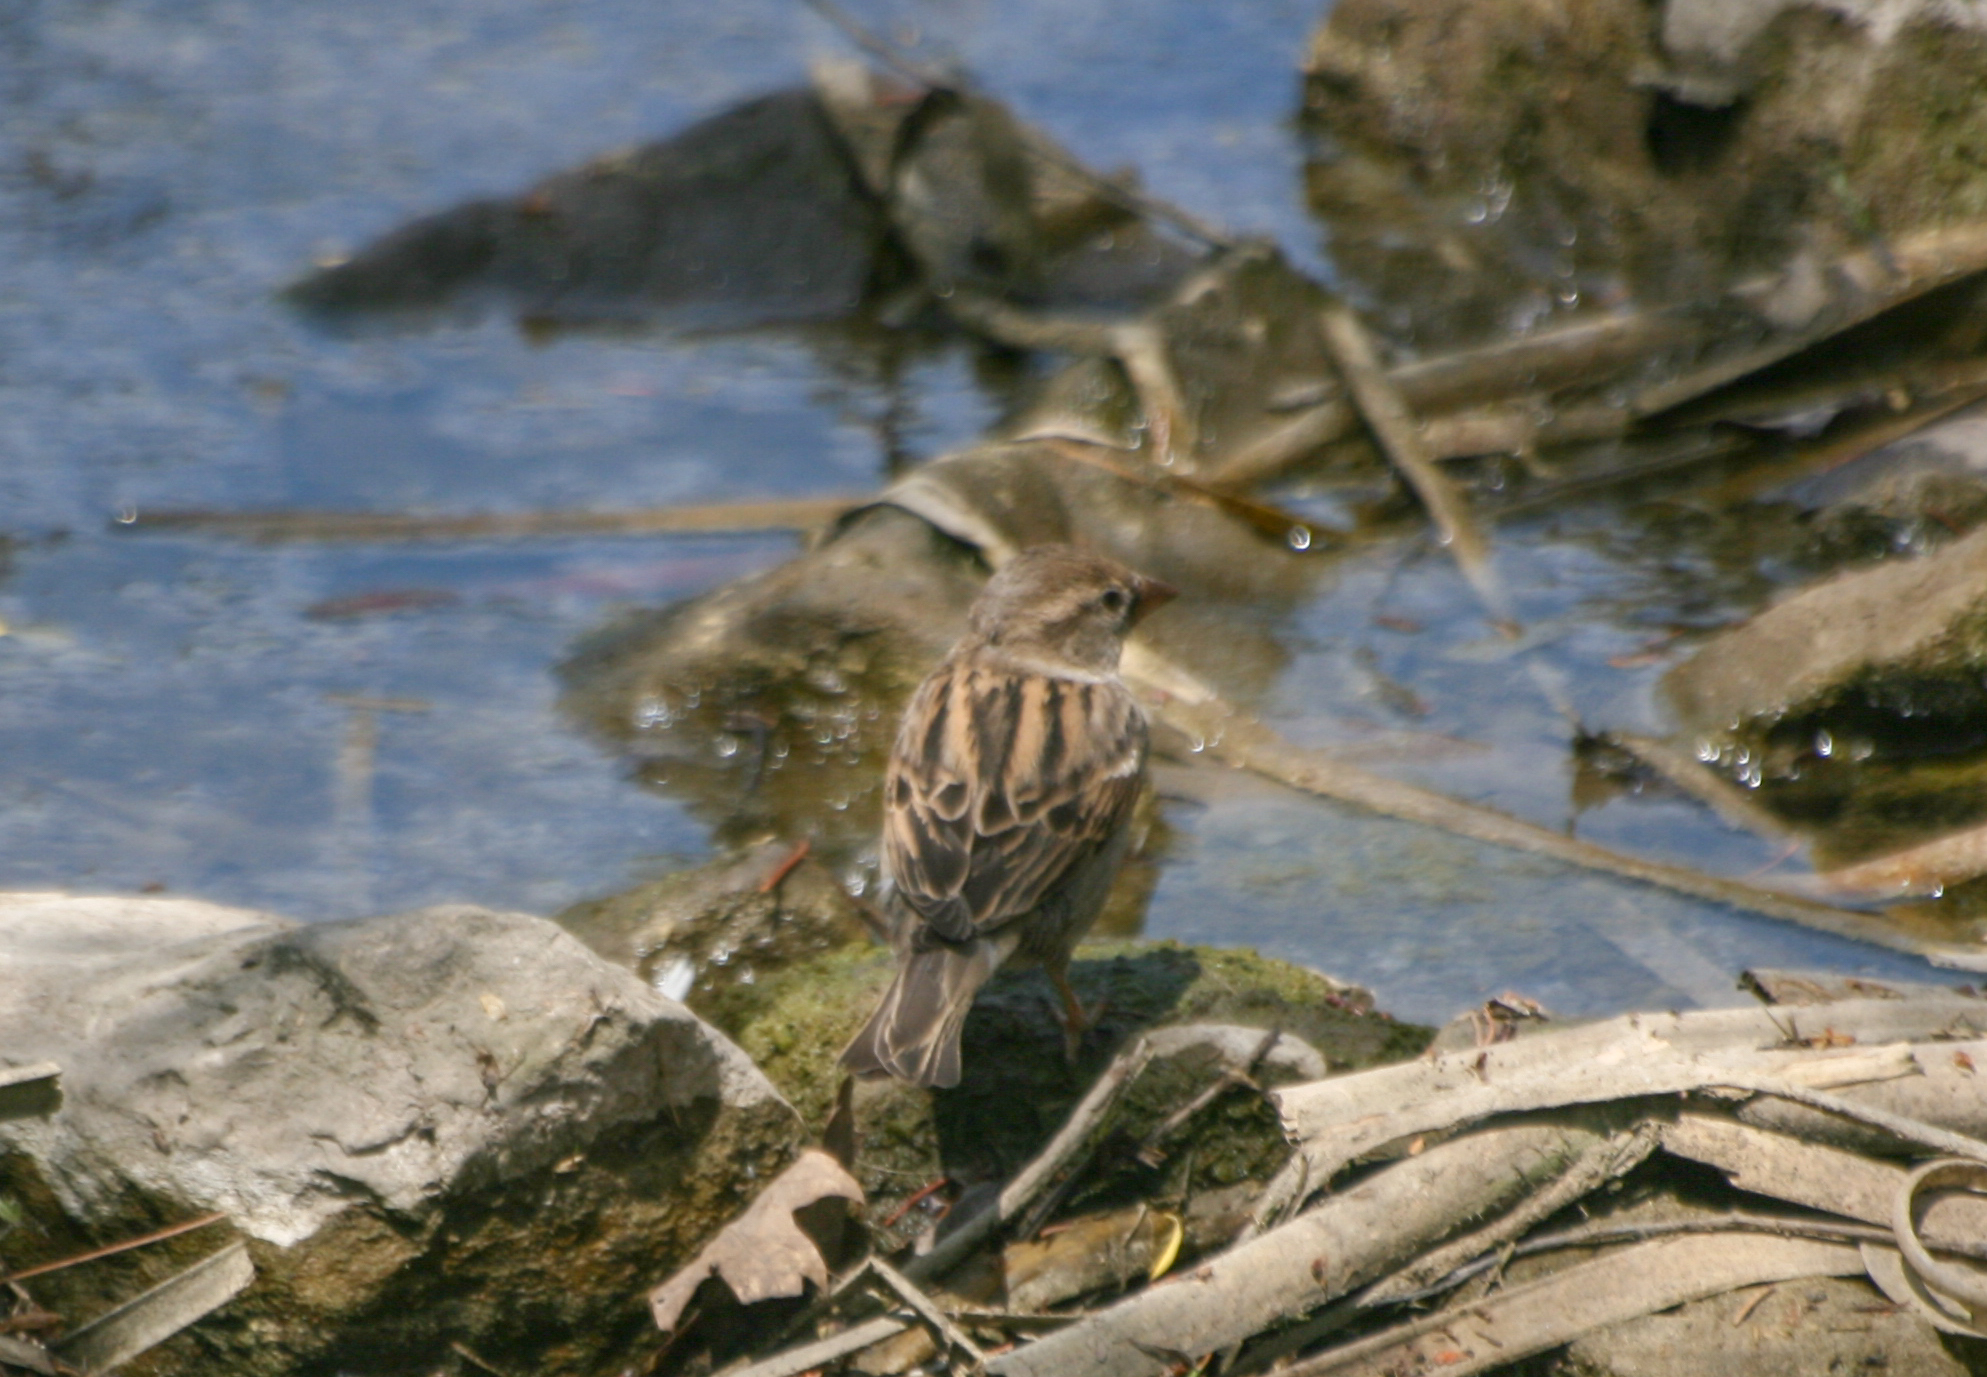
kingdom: Animalia
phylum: Chordata
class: Aves
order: Passeriformes
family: Passeridae
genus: Passer
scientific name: Passer domesticus
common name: House sparrow
